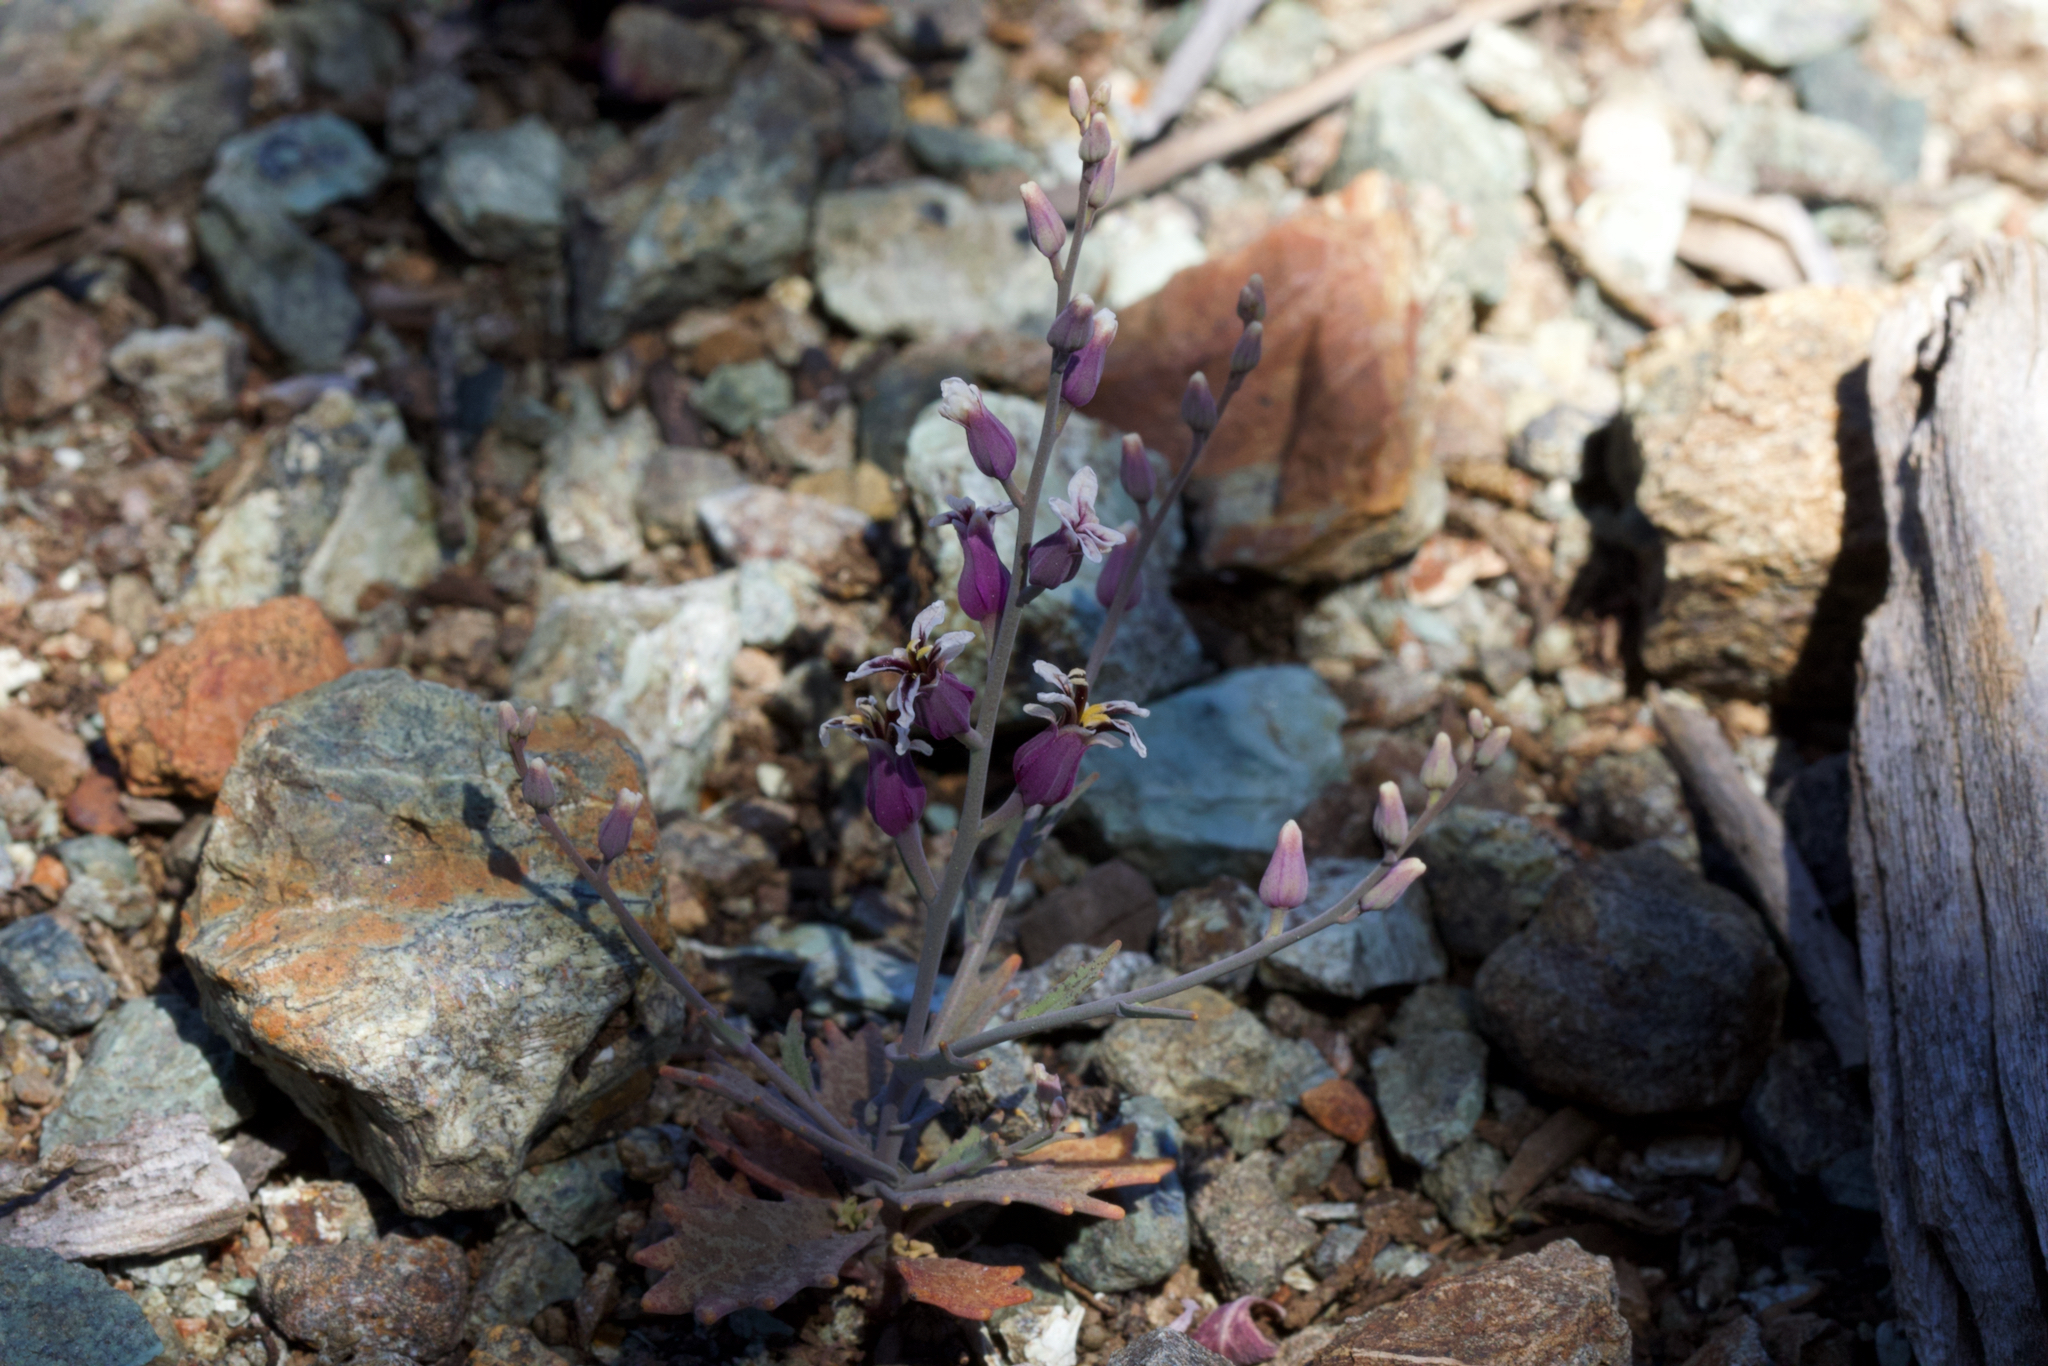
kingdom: Plantae
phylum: Tracheophyta
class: Magnoliopsida
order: Brassicales
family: Brassicaceae
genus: Streptanthus
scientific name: Streptanthus batrachopus
